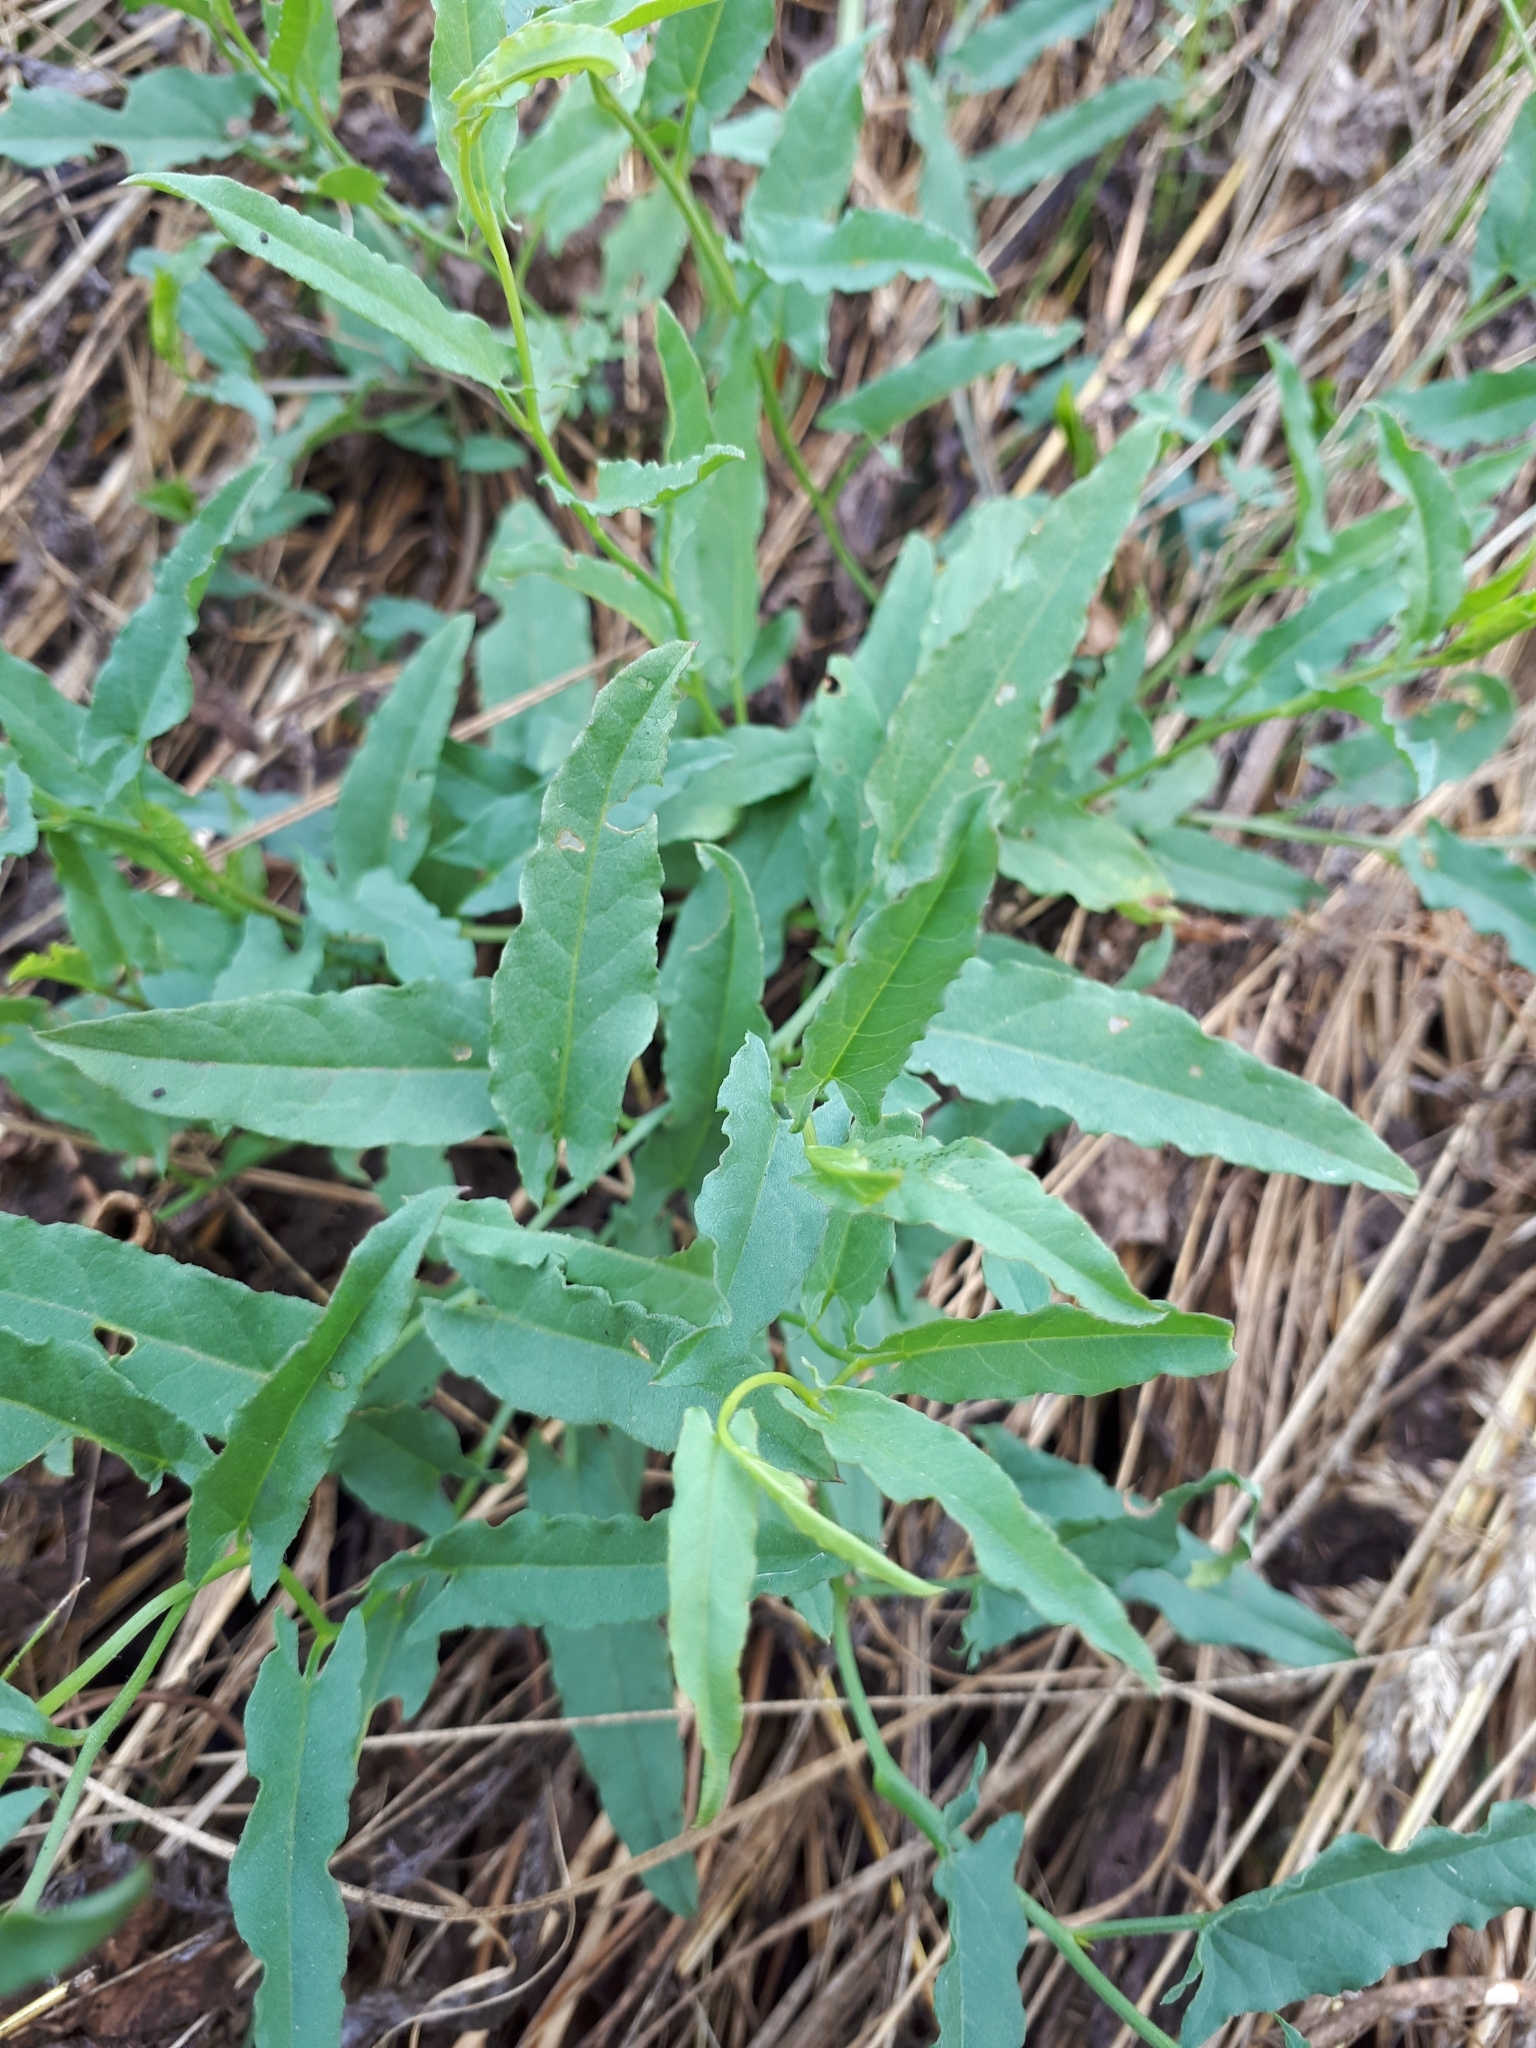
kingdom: Plantae
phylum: Tracheophyta
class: Magnoliopsida
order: Solanales
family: Convolvulaceae
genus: Convolvulus
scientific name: Convolvulus arvensis
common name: Field bindweed
